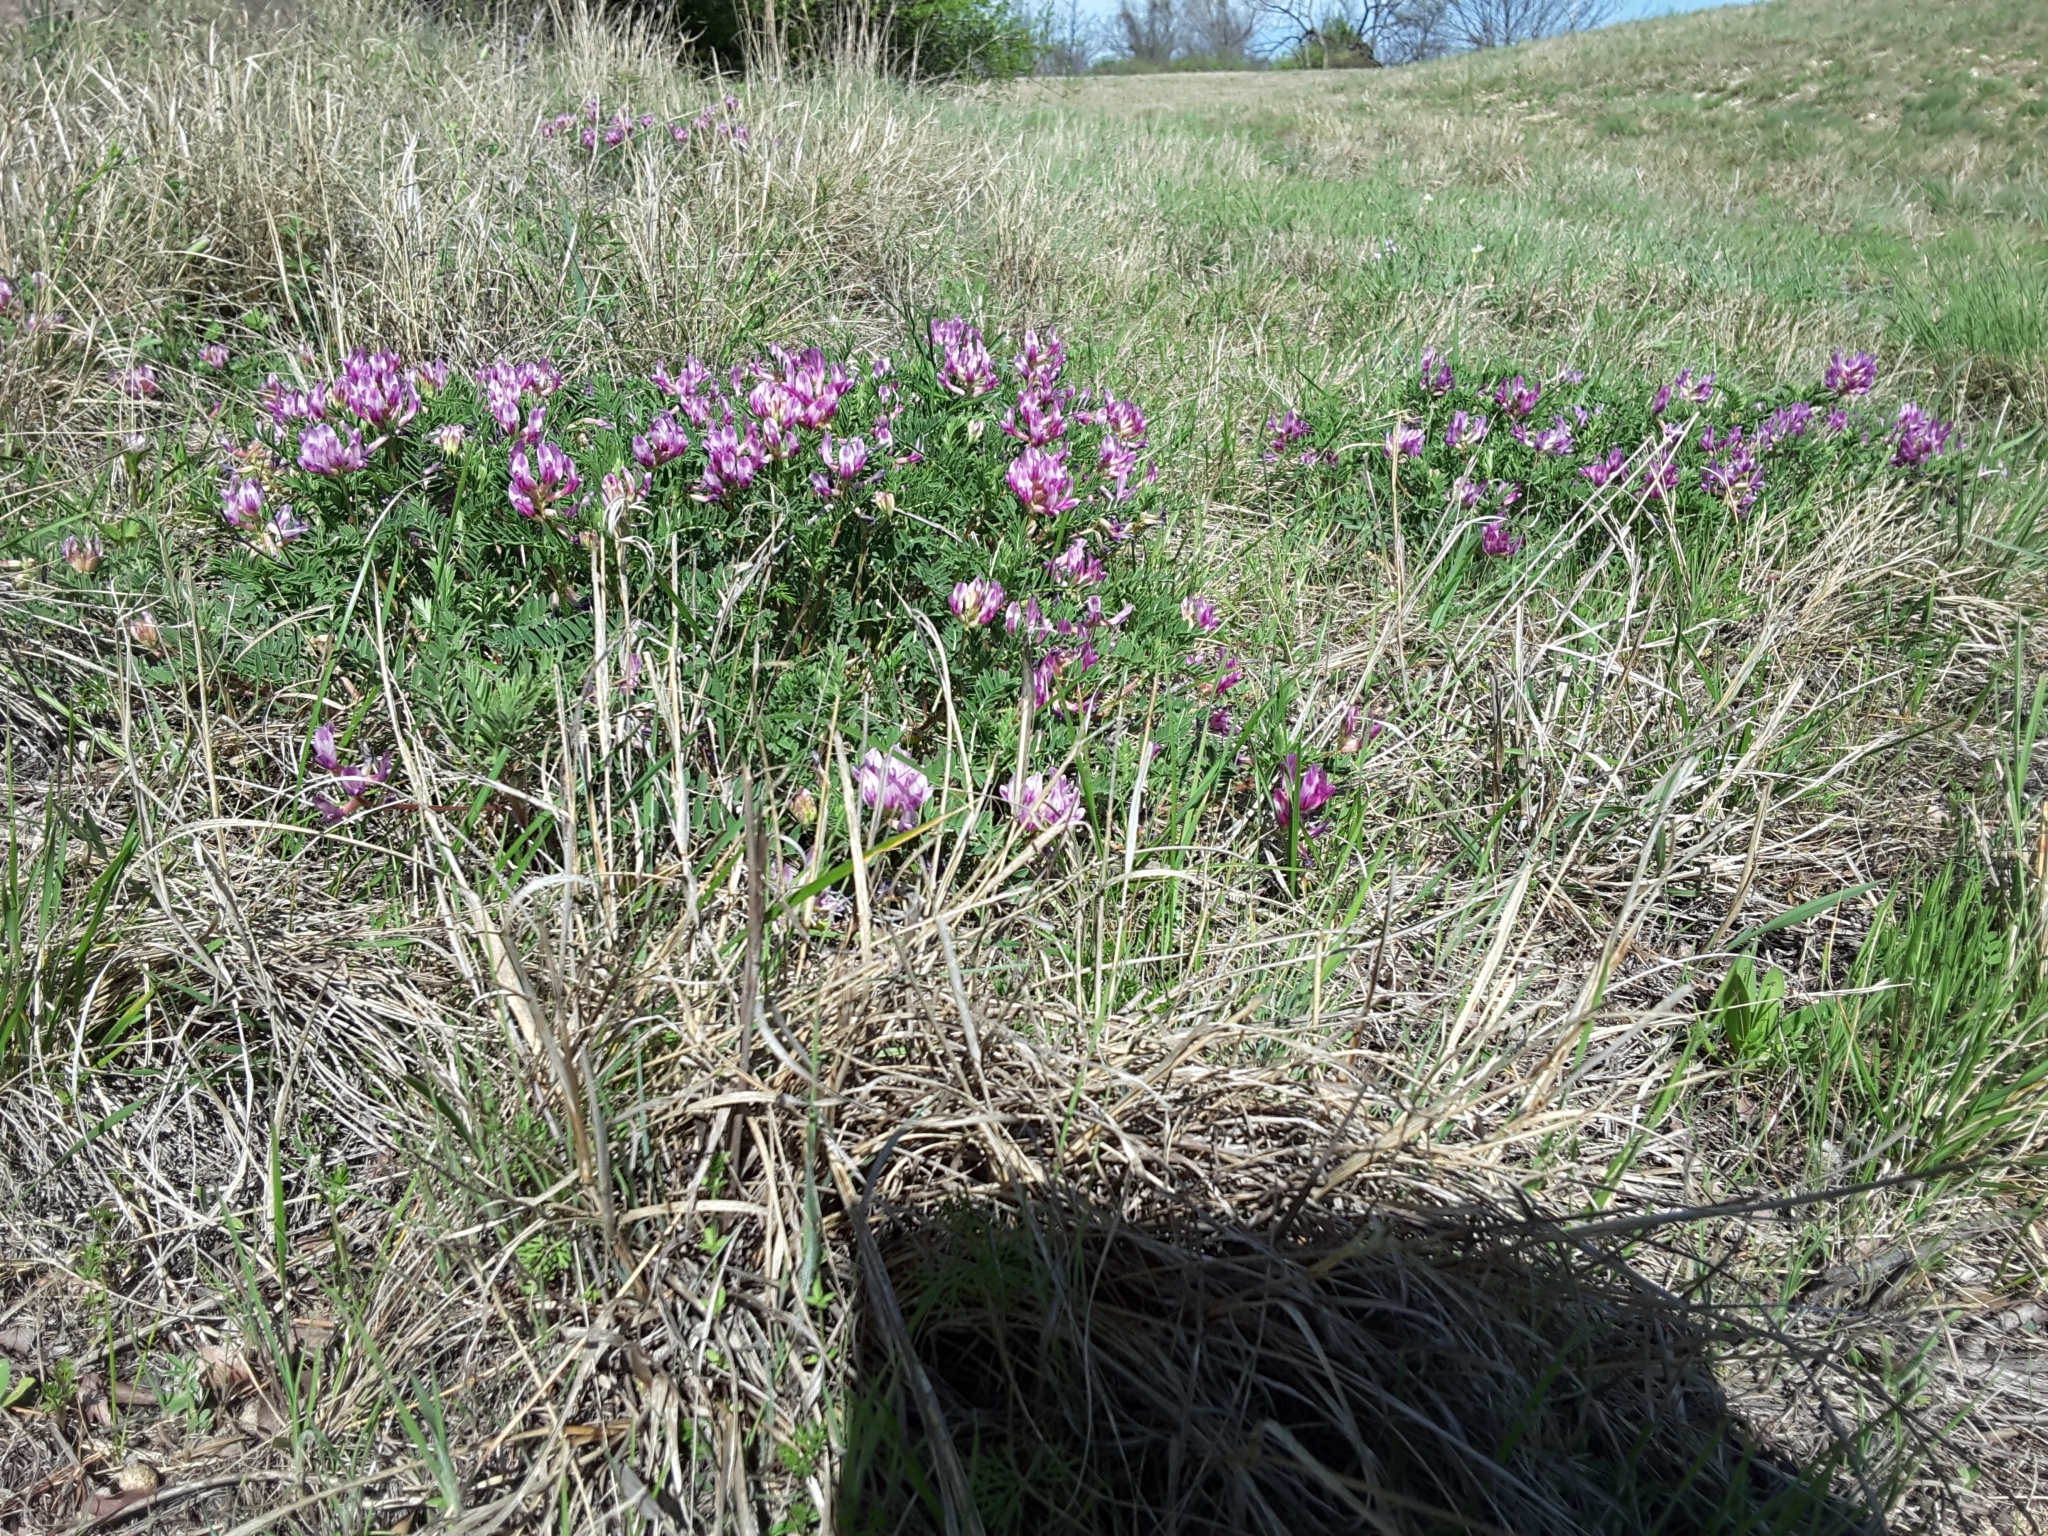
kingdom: Plantae
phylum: Tracheophyta
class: Magnoliopsida
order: Fabales
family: Fabaceae
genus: Astragalus
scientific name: Astragalus crassicarpus
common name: Ground-plum milk-vetch
